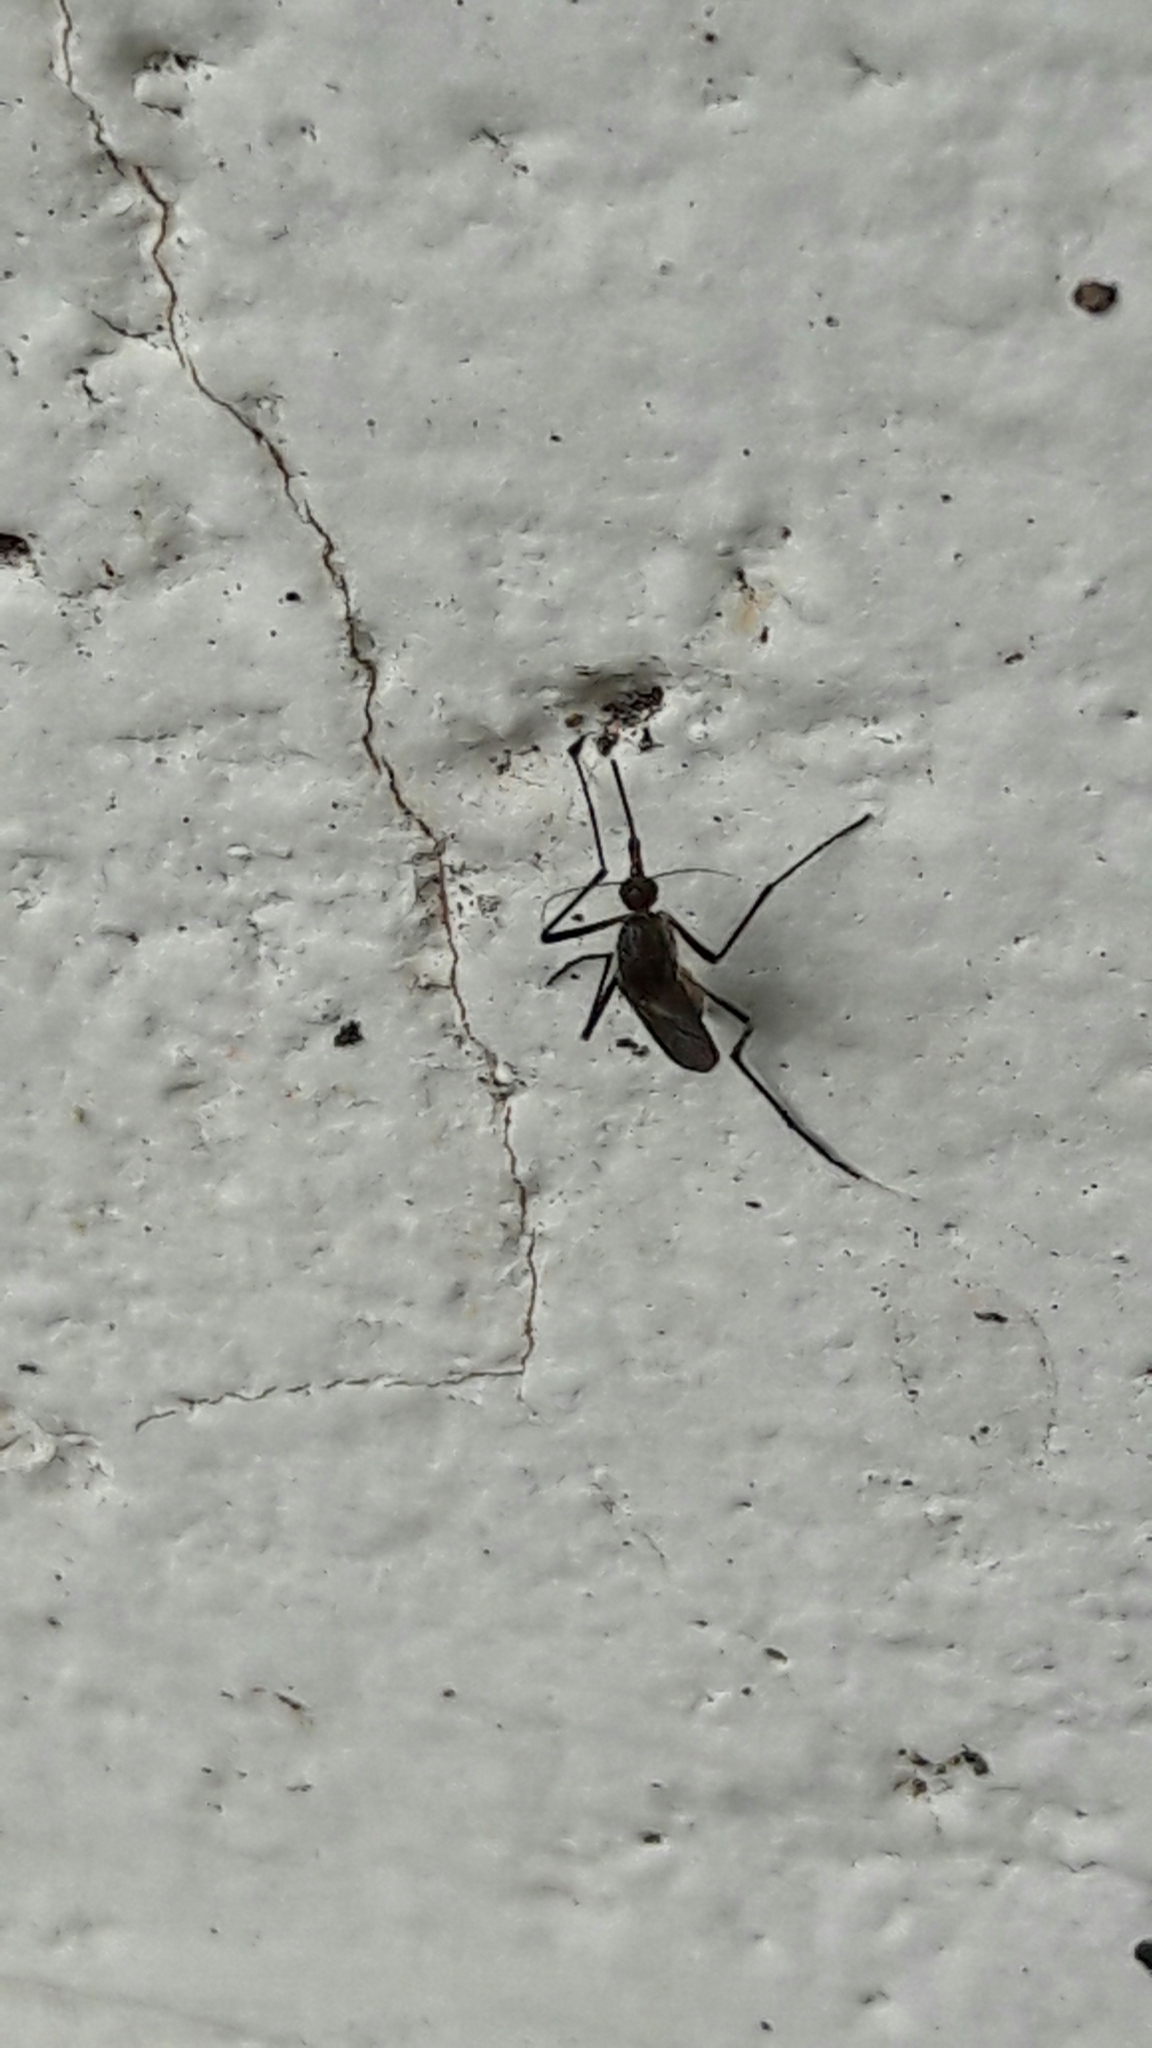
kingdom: Animalia
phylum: Arthropoda
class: Insecta
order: Diptera
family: Culicidae
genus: Psorophora
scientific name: Psorophora ferox
